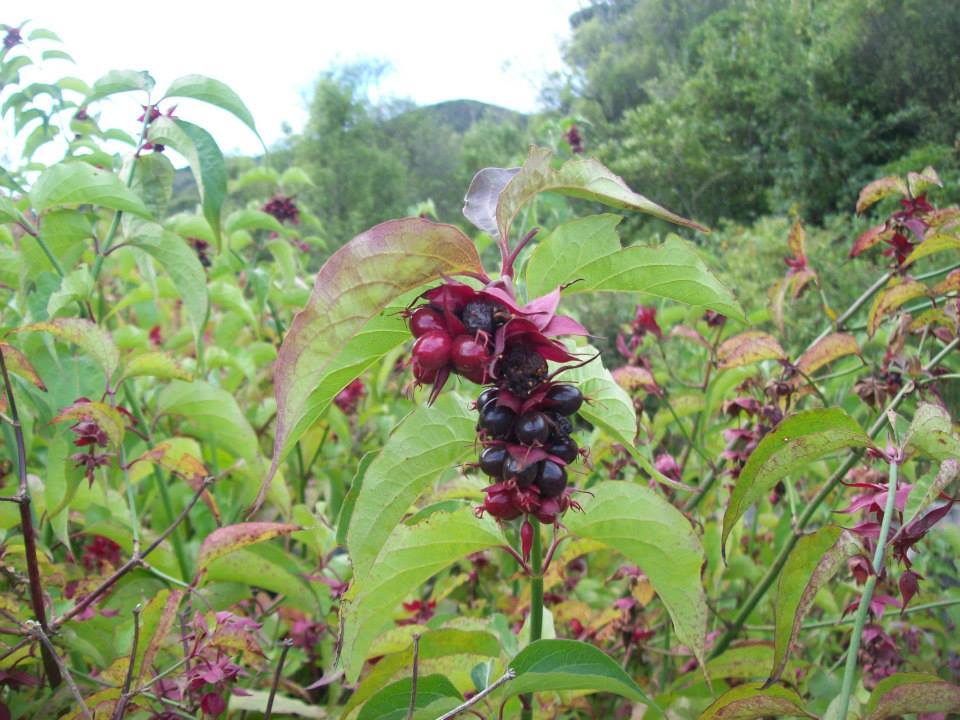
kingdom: Plantae
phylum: Tracheophyta
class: Magnoliopsida
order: Dipsacales
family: Caprifoliaceae
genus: Leycesteria
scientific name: Leycesteria formosa
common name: Himalayan honeysuckle
